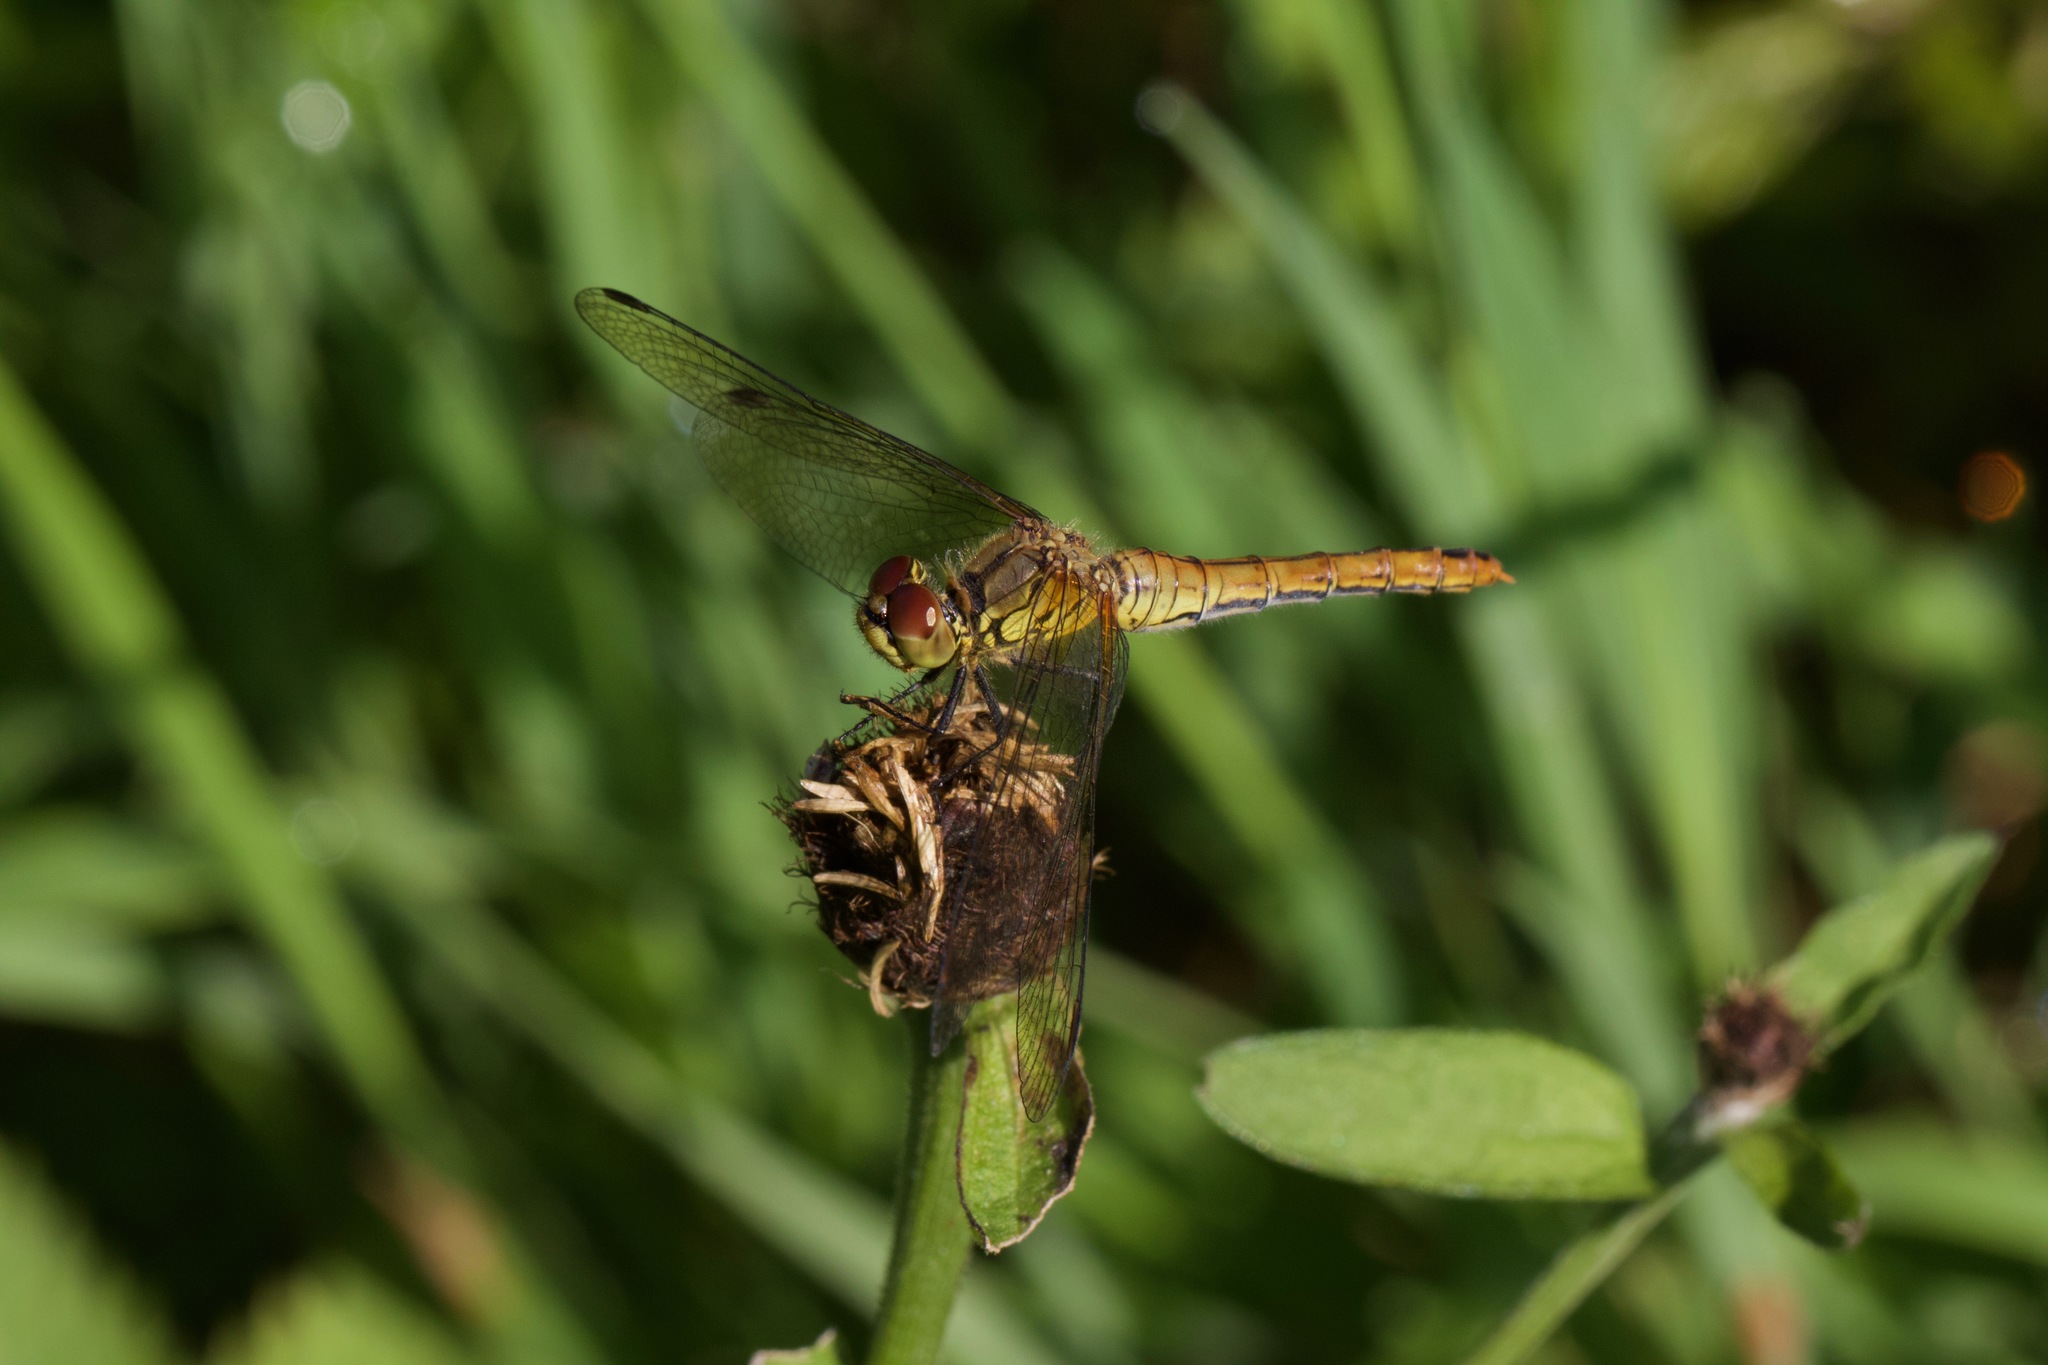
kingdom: Animalia
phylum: Arthropoda
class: Insecta
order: Odonata
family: Libellulidae
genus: Sympetrum
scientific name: Sympetrum sanguineum
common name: Ruddy darter
